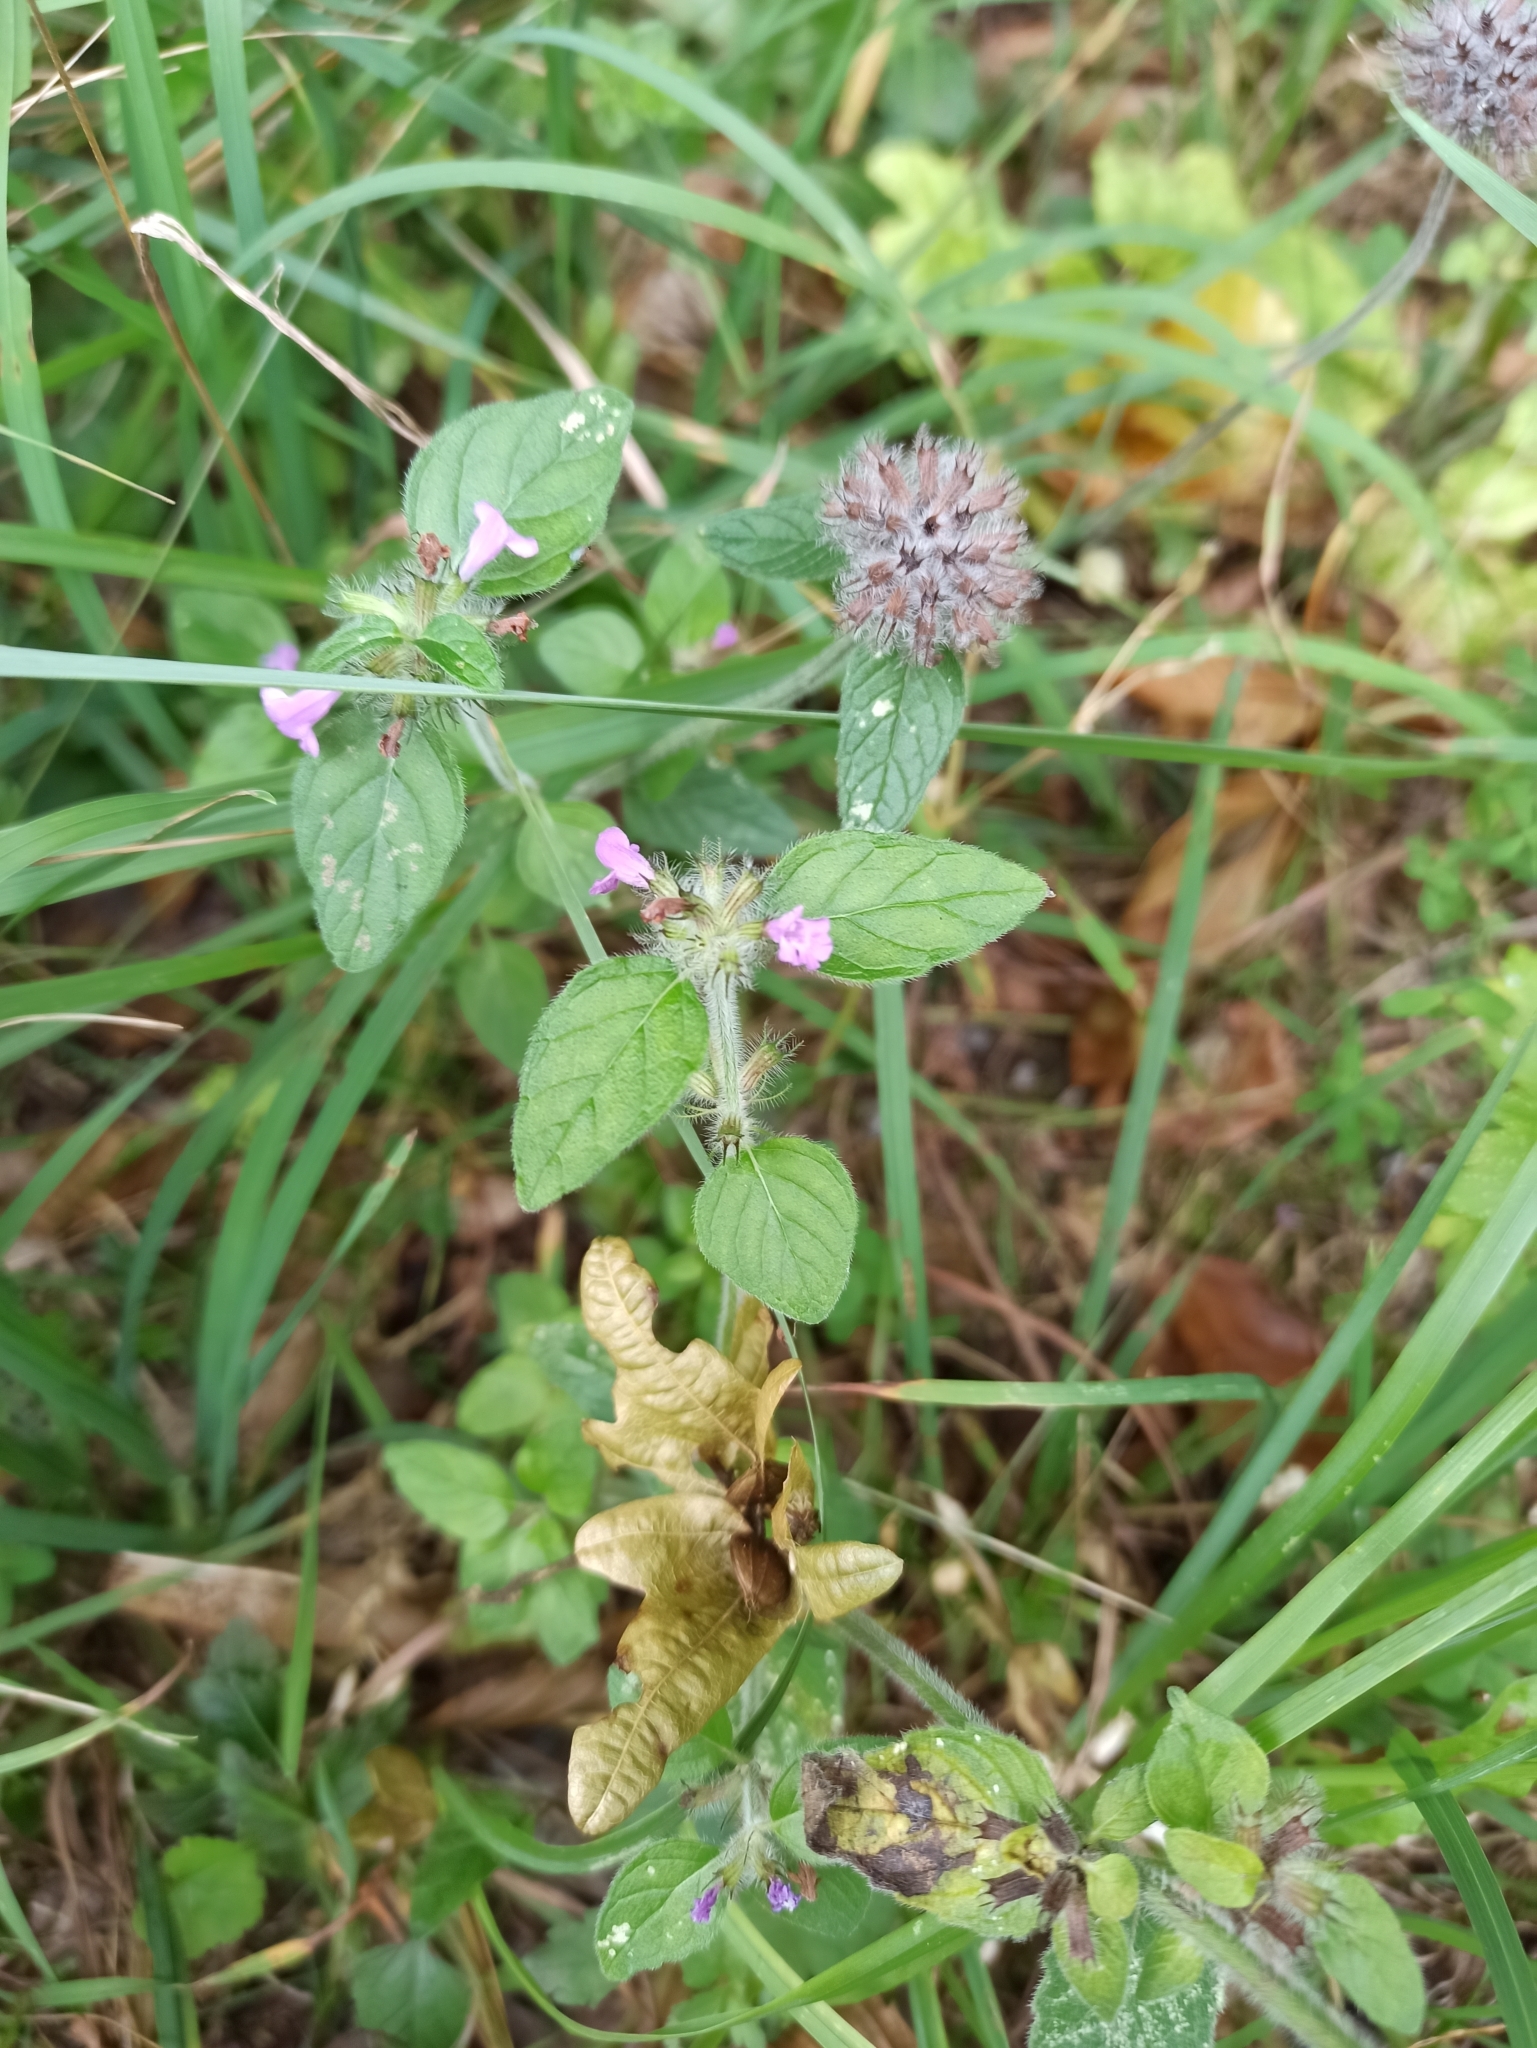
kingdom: Plantae
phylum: Tracheophyta
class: Magnoliopsida
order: Lamiales
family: Lamiaceae
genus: Clinopodium
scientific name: Clinopodium vulgare
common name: Wild basil
